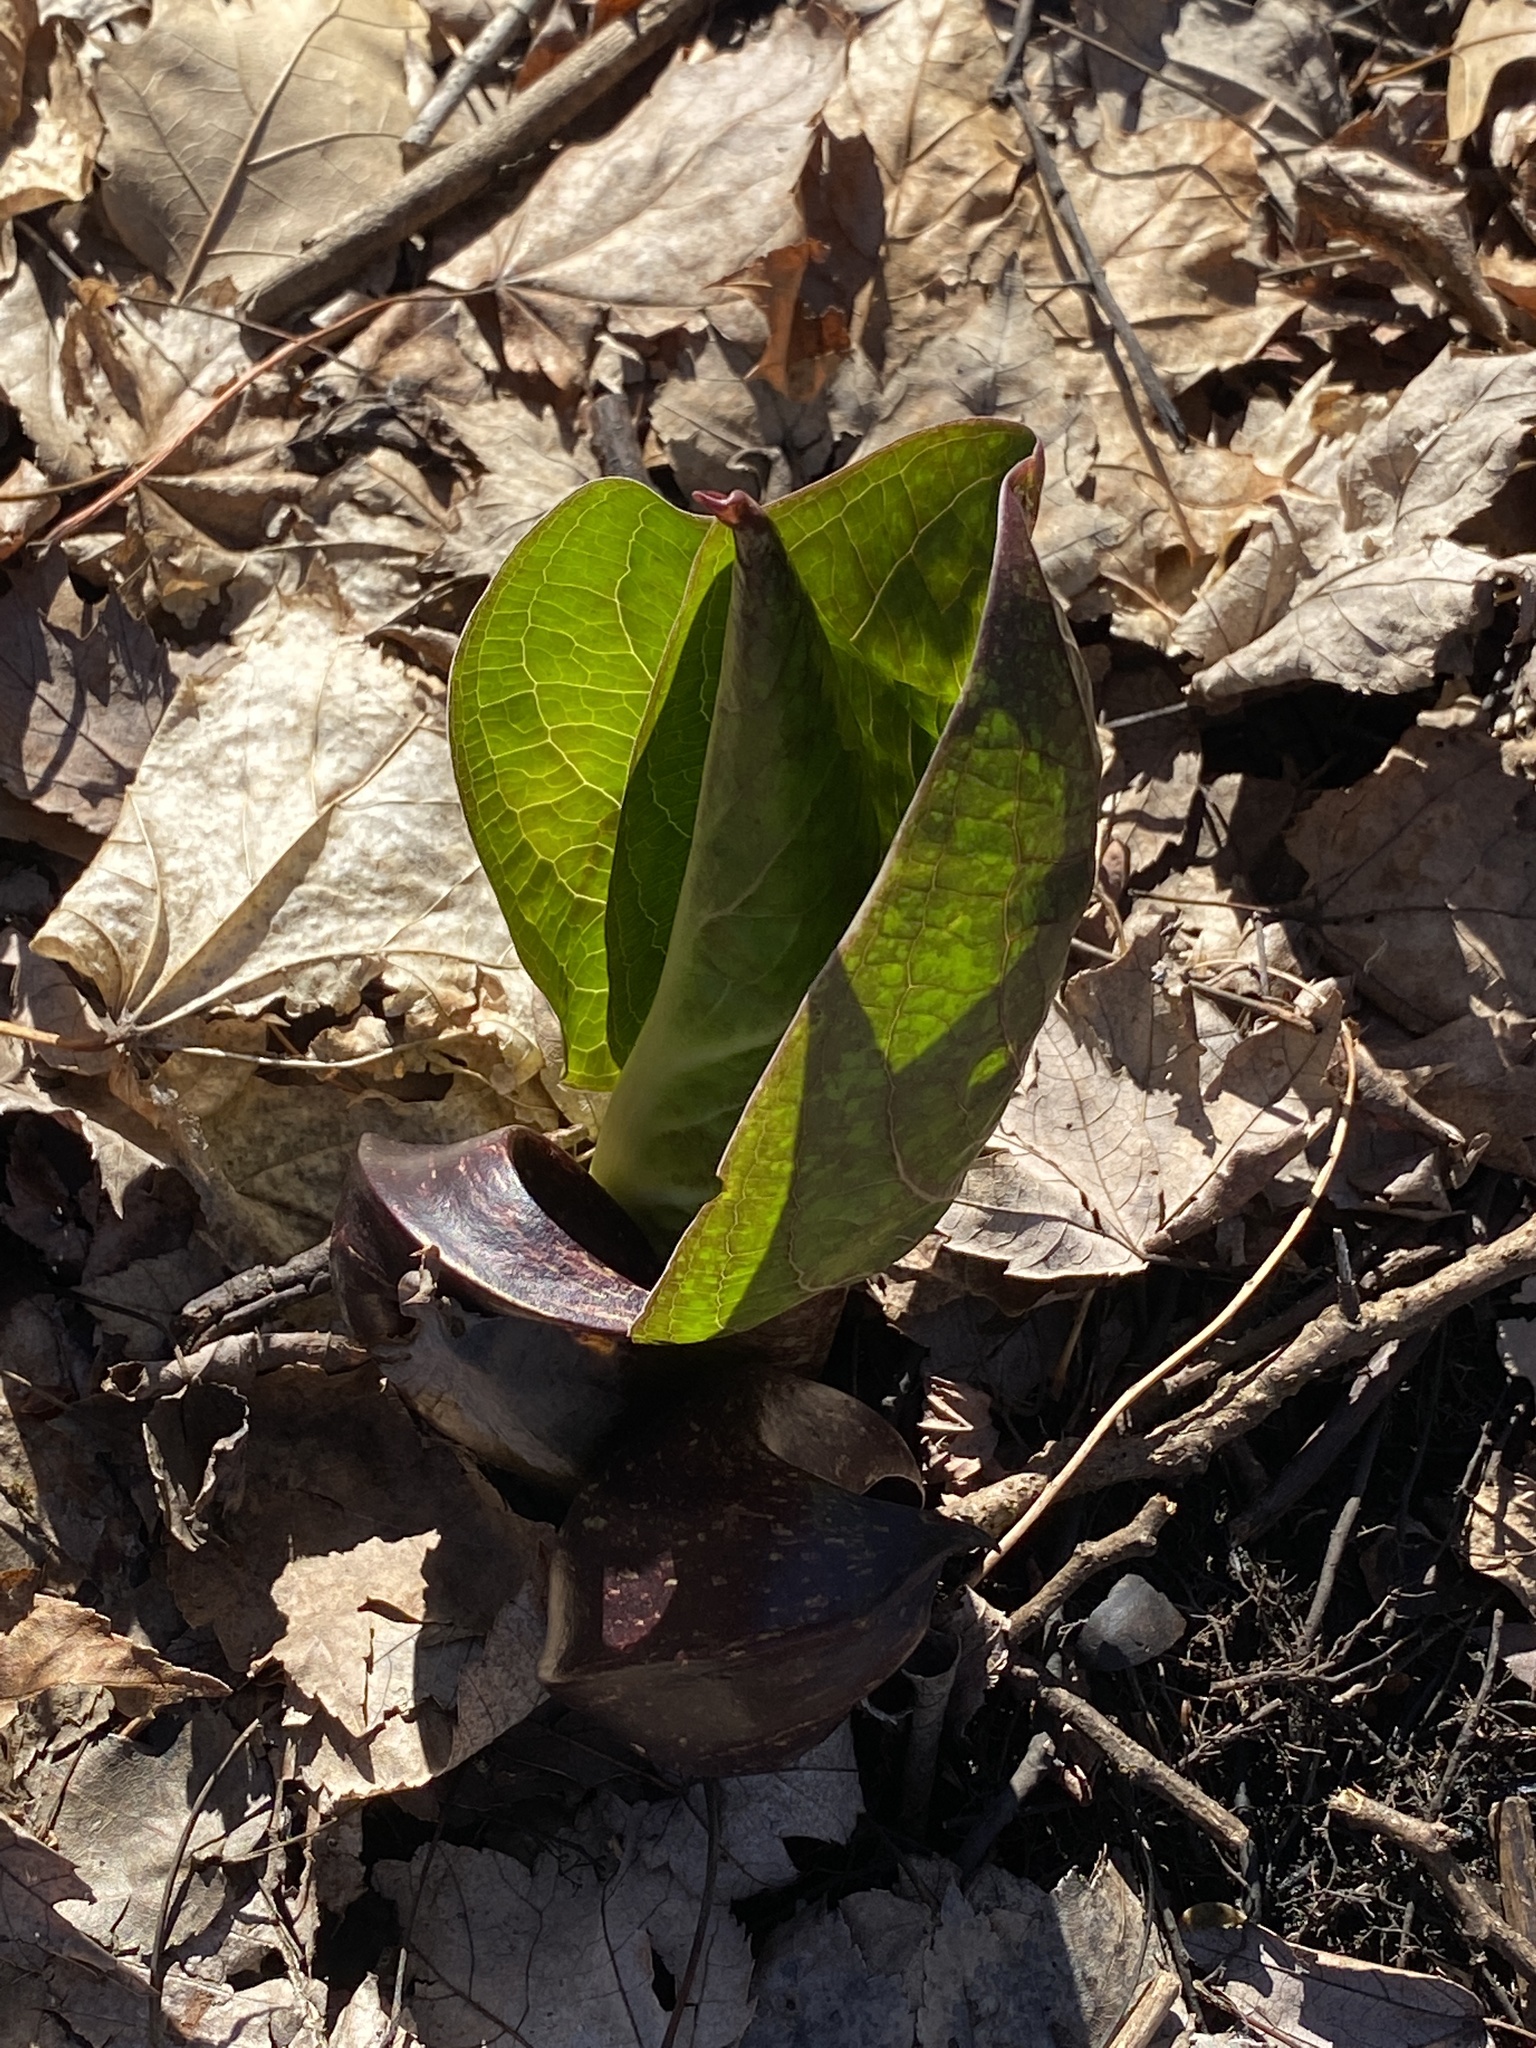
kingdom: Plantae
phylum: Tracheophyta
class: Liliopsida
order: Alismatales
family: Araceae
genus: Symplocarpus
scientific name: Symplocarpus foetidus
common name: Eastern skunk cabbage
